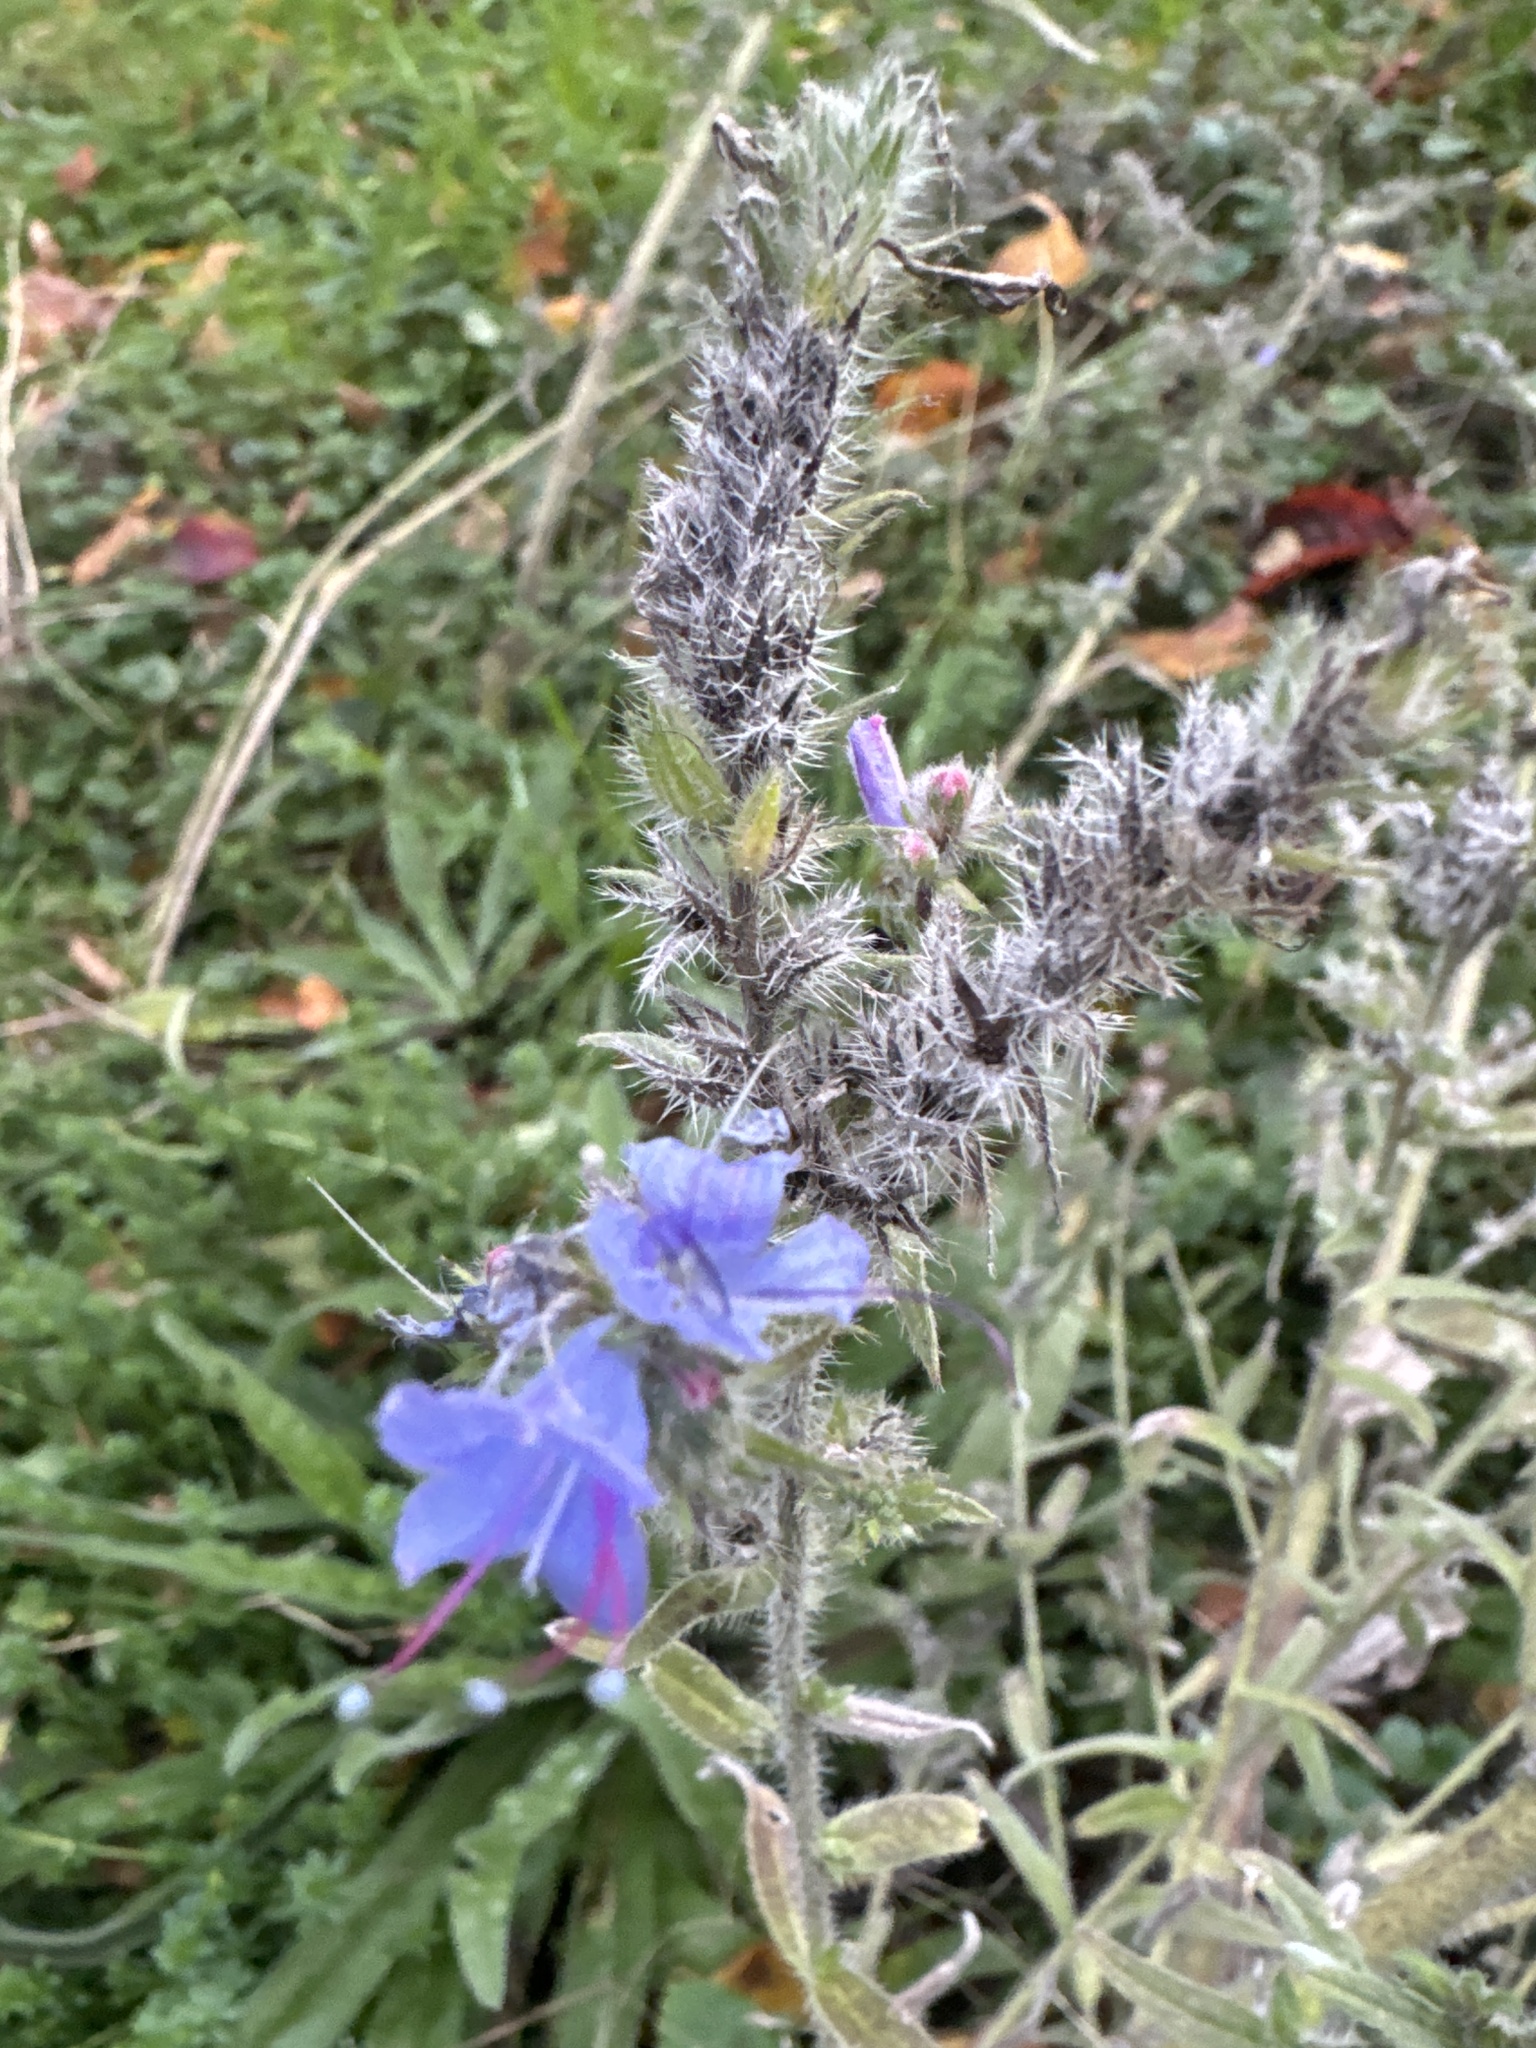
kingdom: Plantae
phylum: Tracheophyta
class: Magnoliopsida
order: Boraginales
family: Boraginaceae
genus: Echium
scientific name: Echium vulgare
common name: Common viper's bugloss
